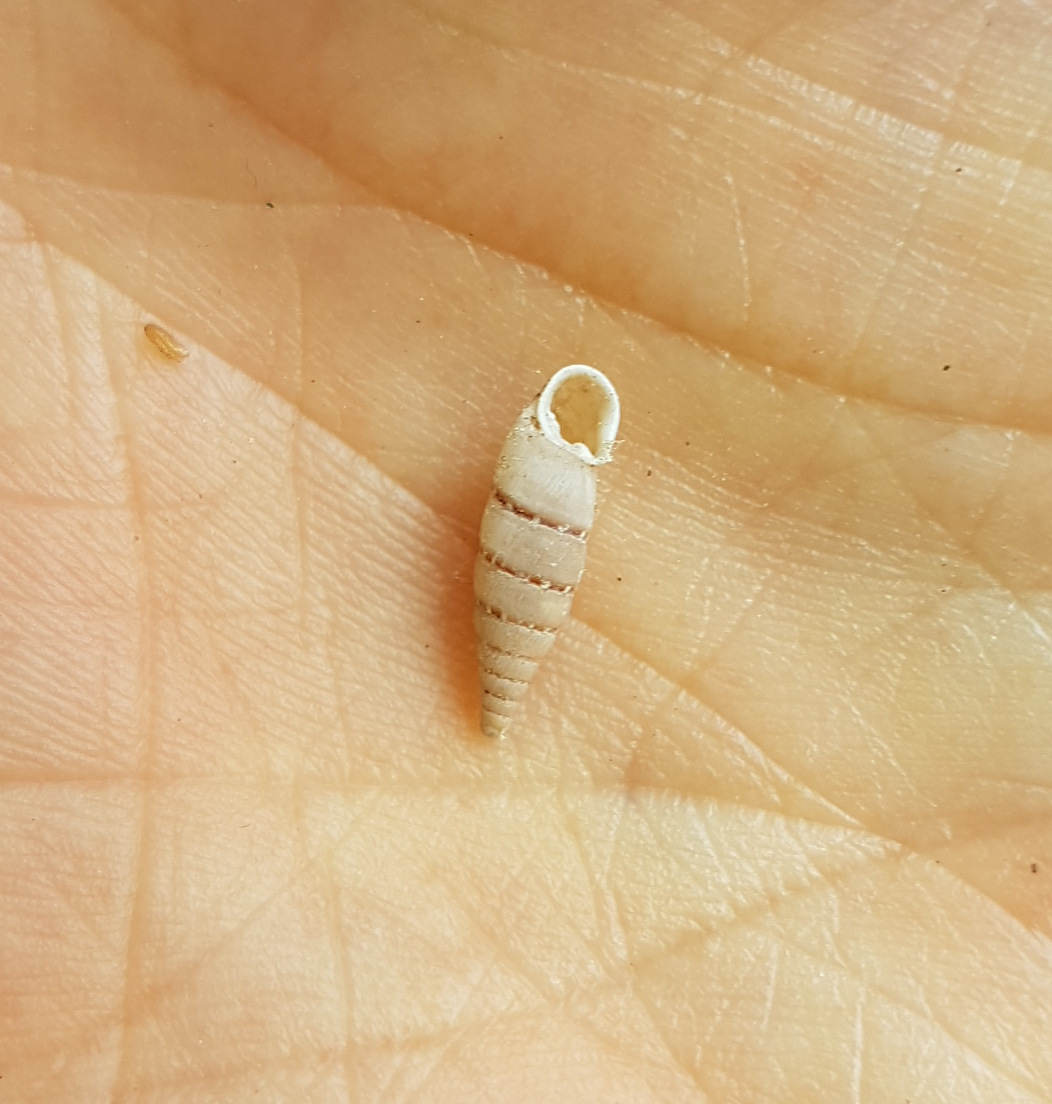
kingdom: Animalia
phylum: Mollusca
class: Gastropoda
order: Stylommatophora
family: Clausiliidae
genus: Papillifera
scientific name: Papillifera papillaris
